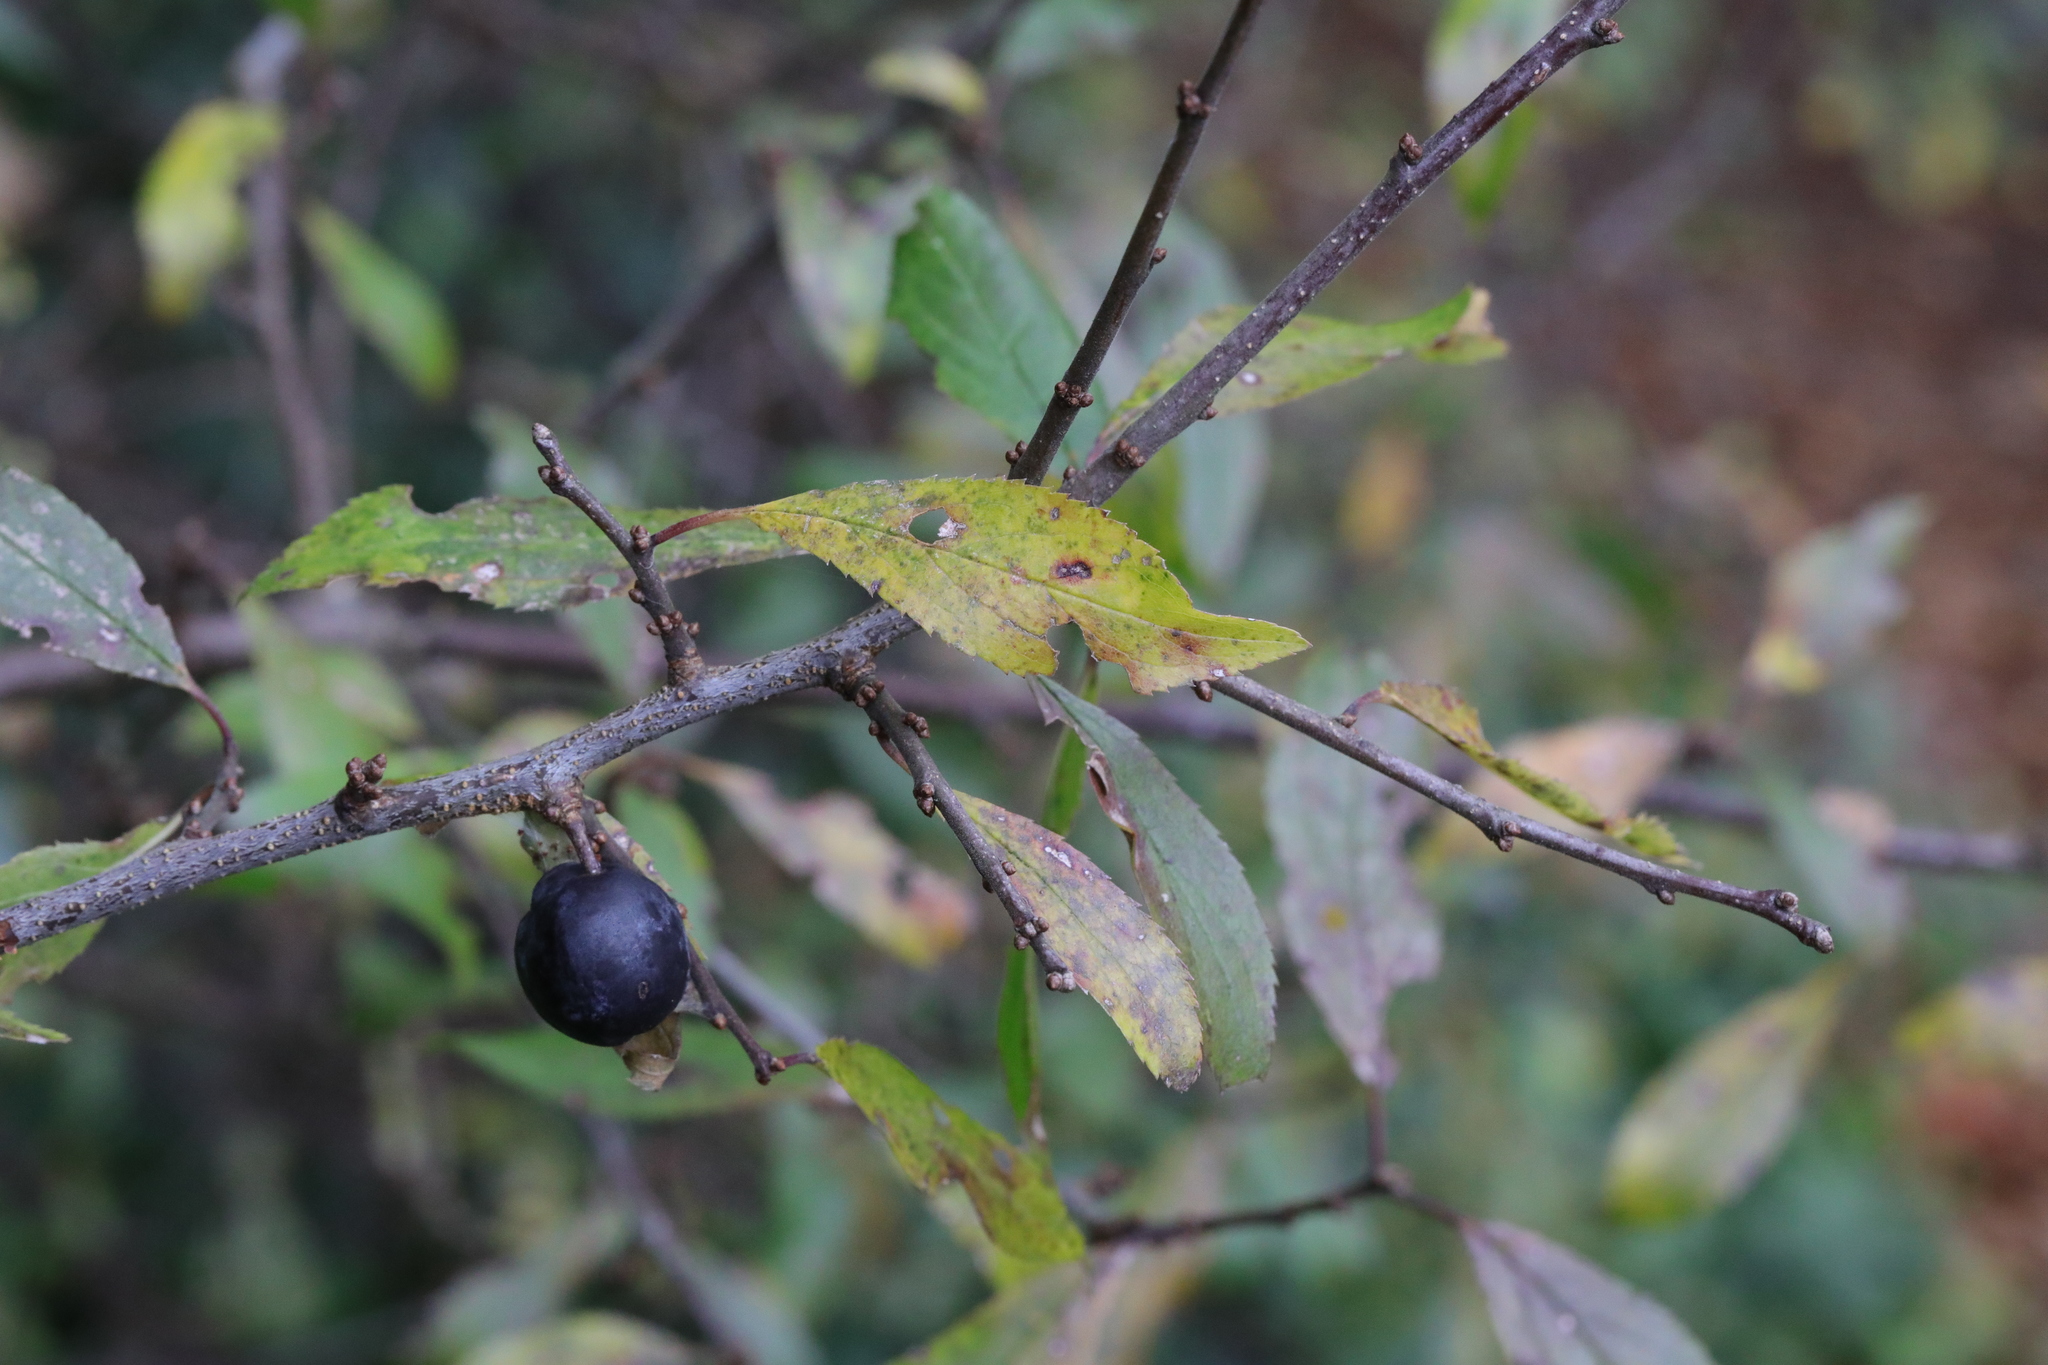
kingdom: Plantae
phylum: Tracheophyta
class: Magnoliopsida
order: Rosales
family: Rosaceae
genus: Prunus
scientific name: Prunus spinosa
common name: Blackthorn
